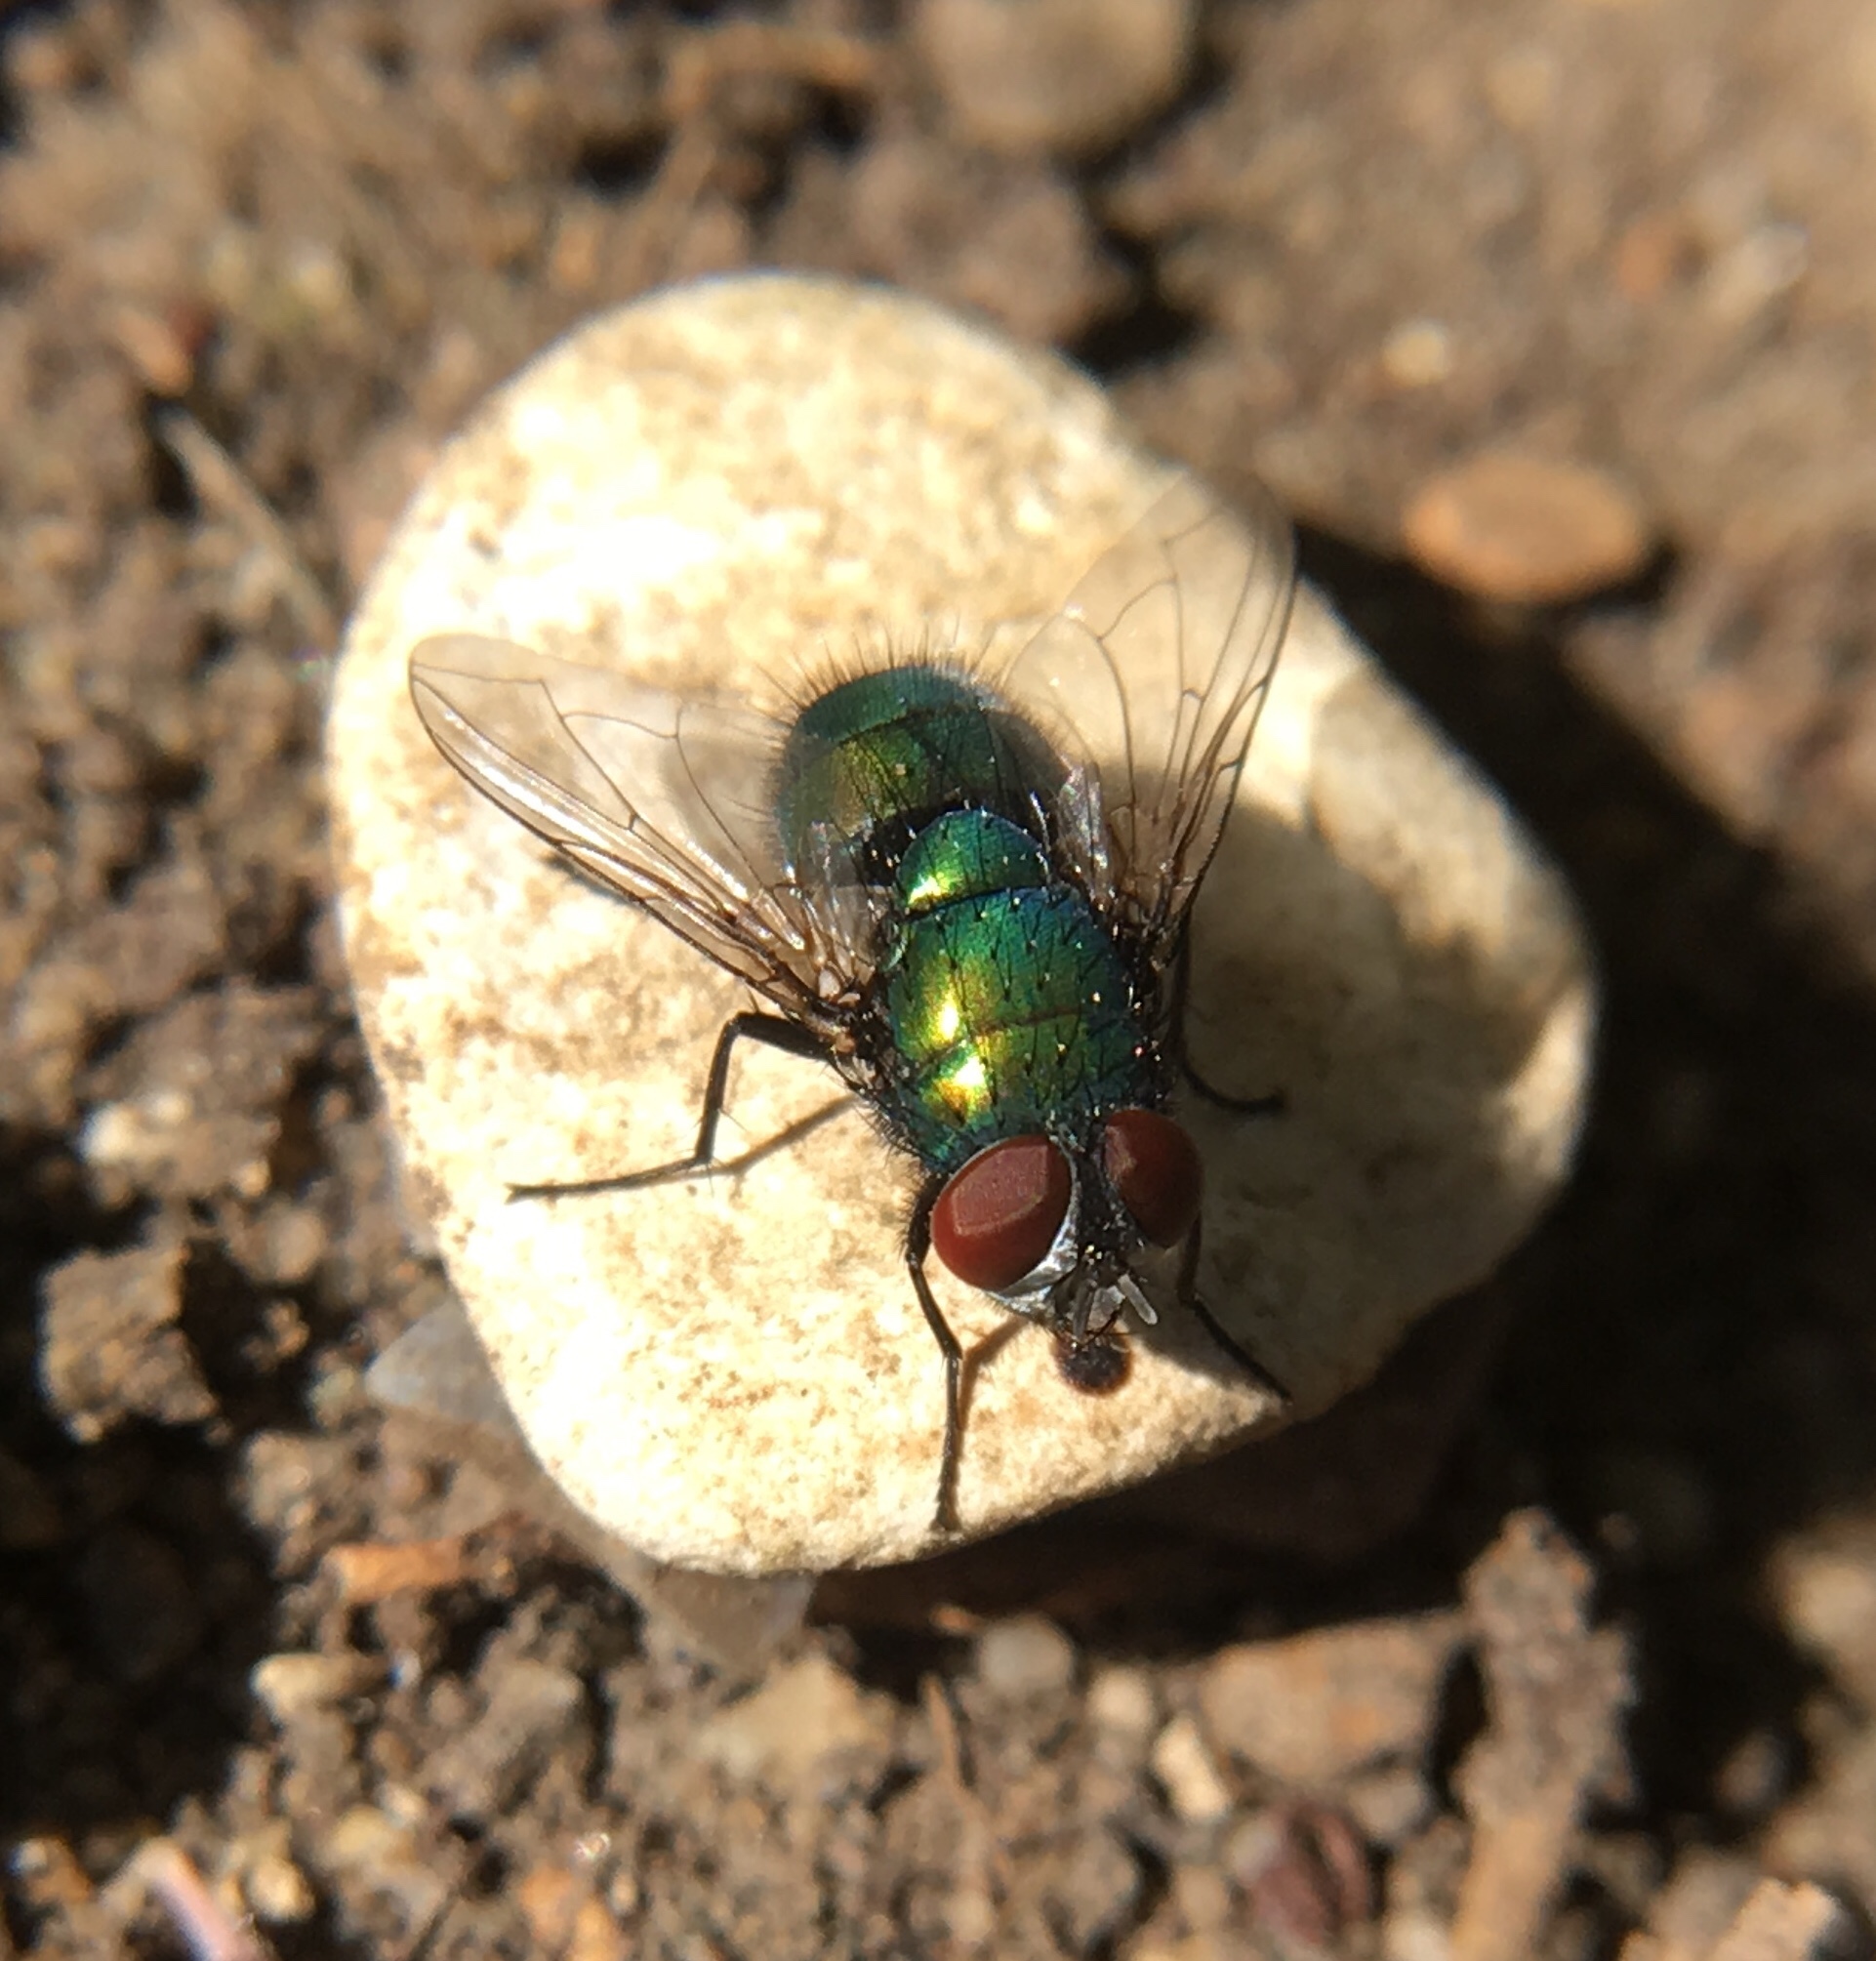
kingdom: Animalia
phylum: Arthropoda
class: Insecta
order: Diptera
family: Calliphoridae
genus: Lucilia
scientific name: Lucilia sericata
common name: Blow fly
